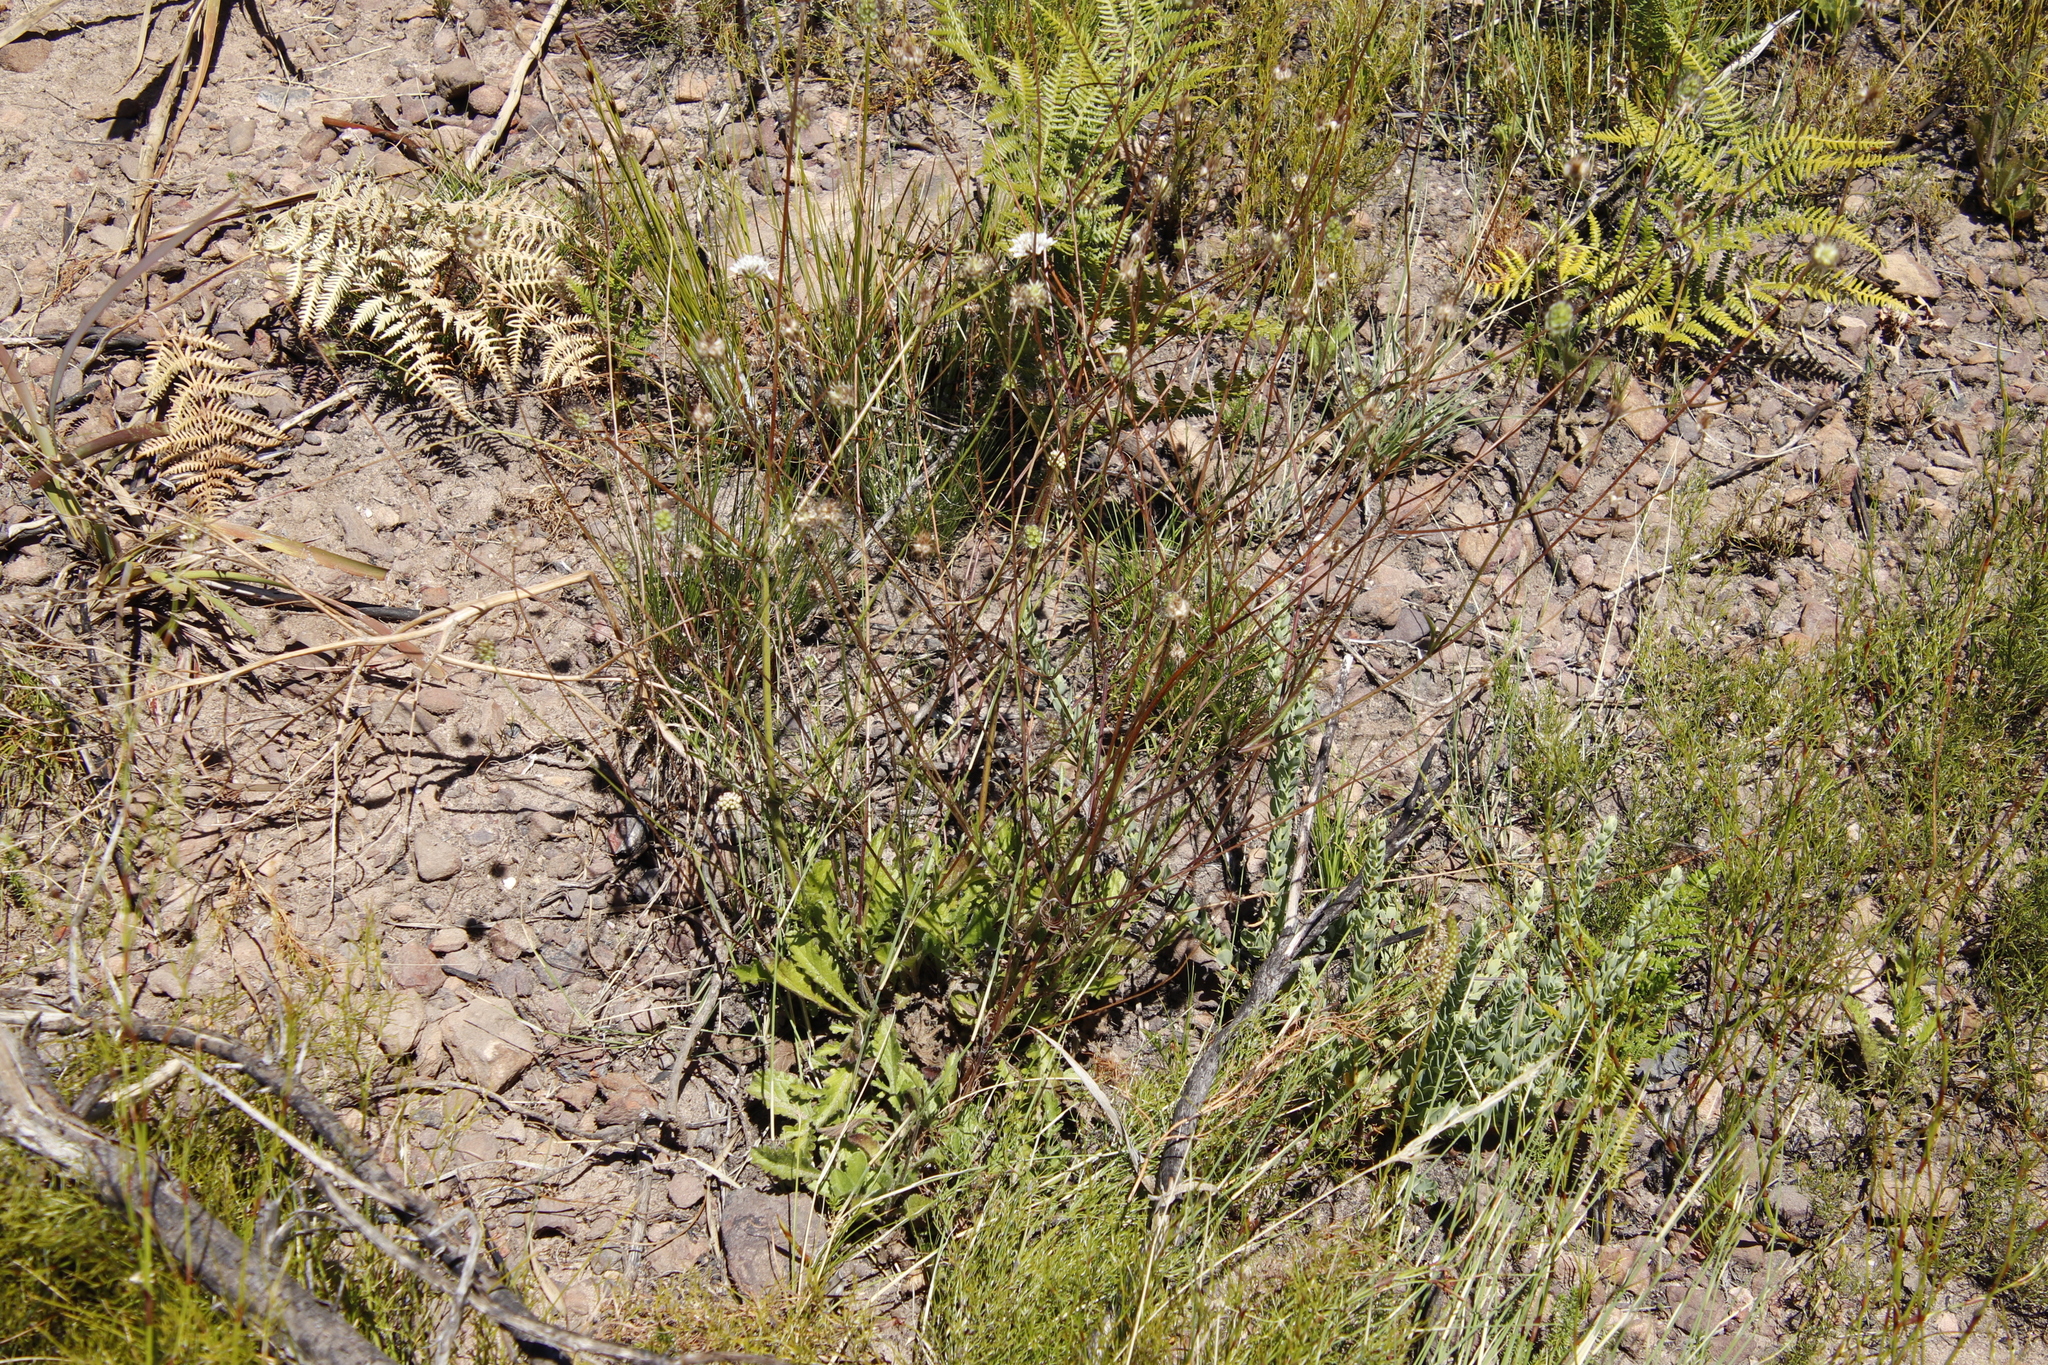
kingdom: Plantae
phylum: Tracheophyta
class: Magnoliopsida
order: Dipsacales
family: Caprifoliaceae
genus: Scabiosa
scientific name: Scabiosa columbaria
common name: Small scabious
